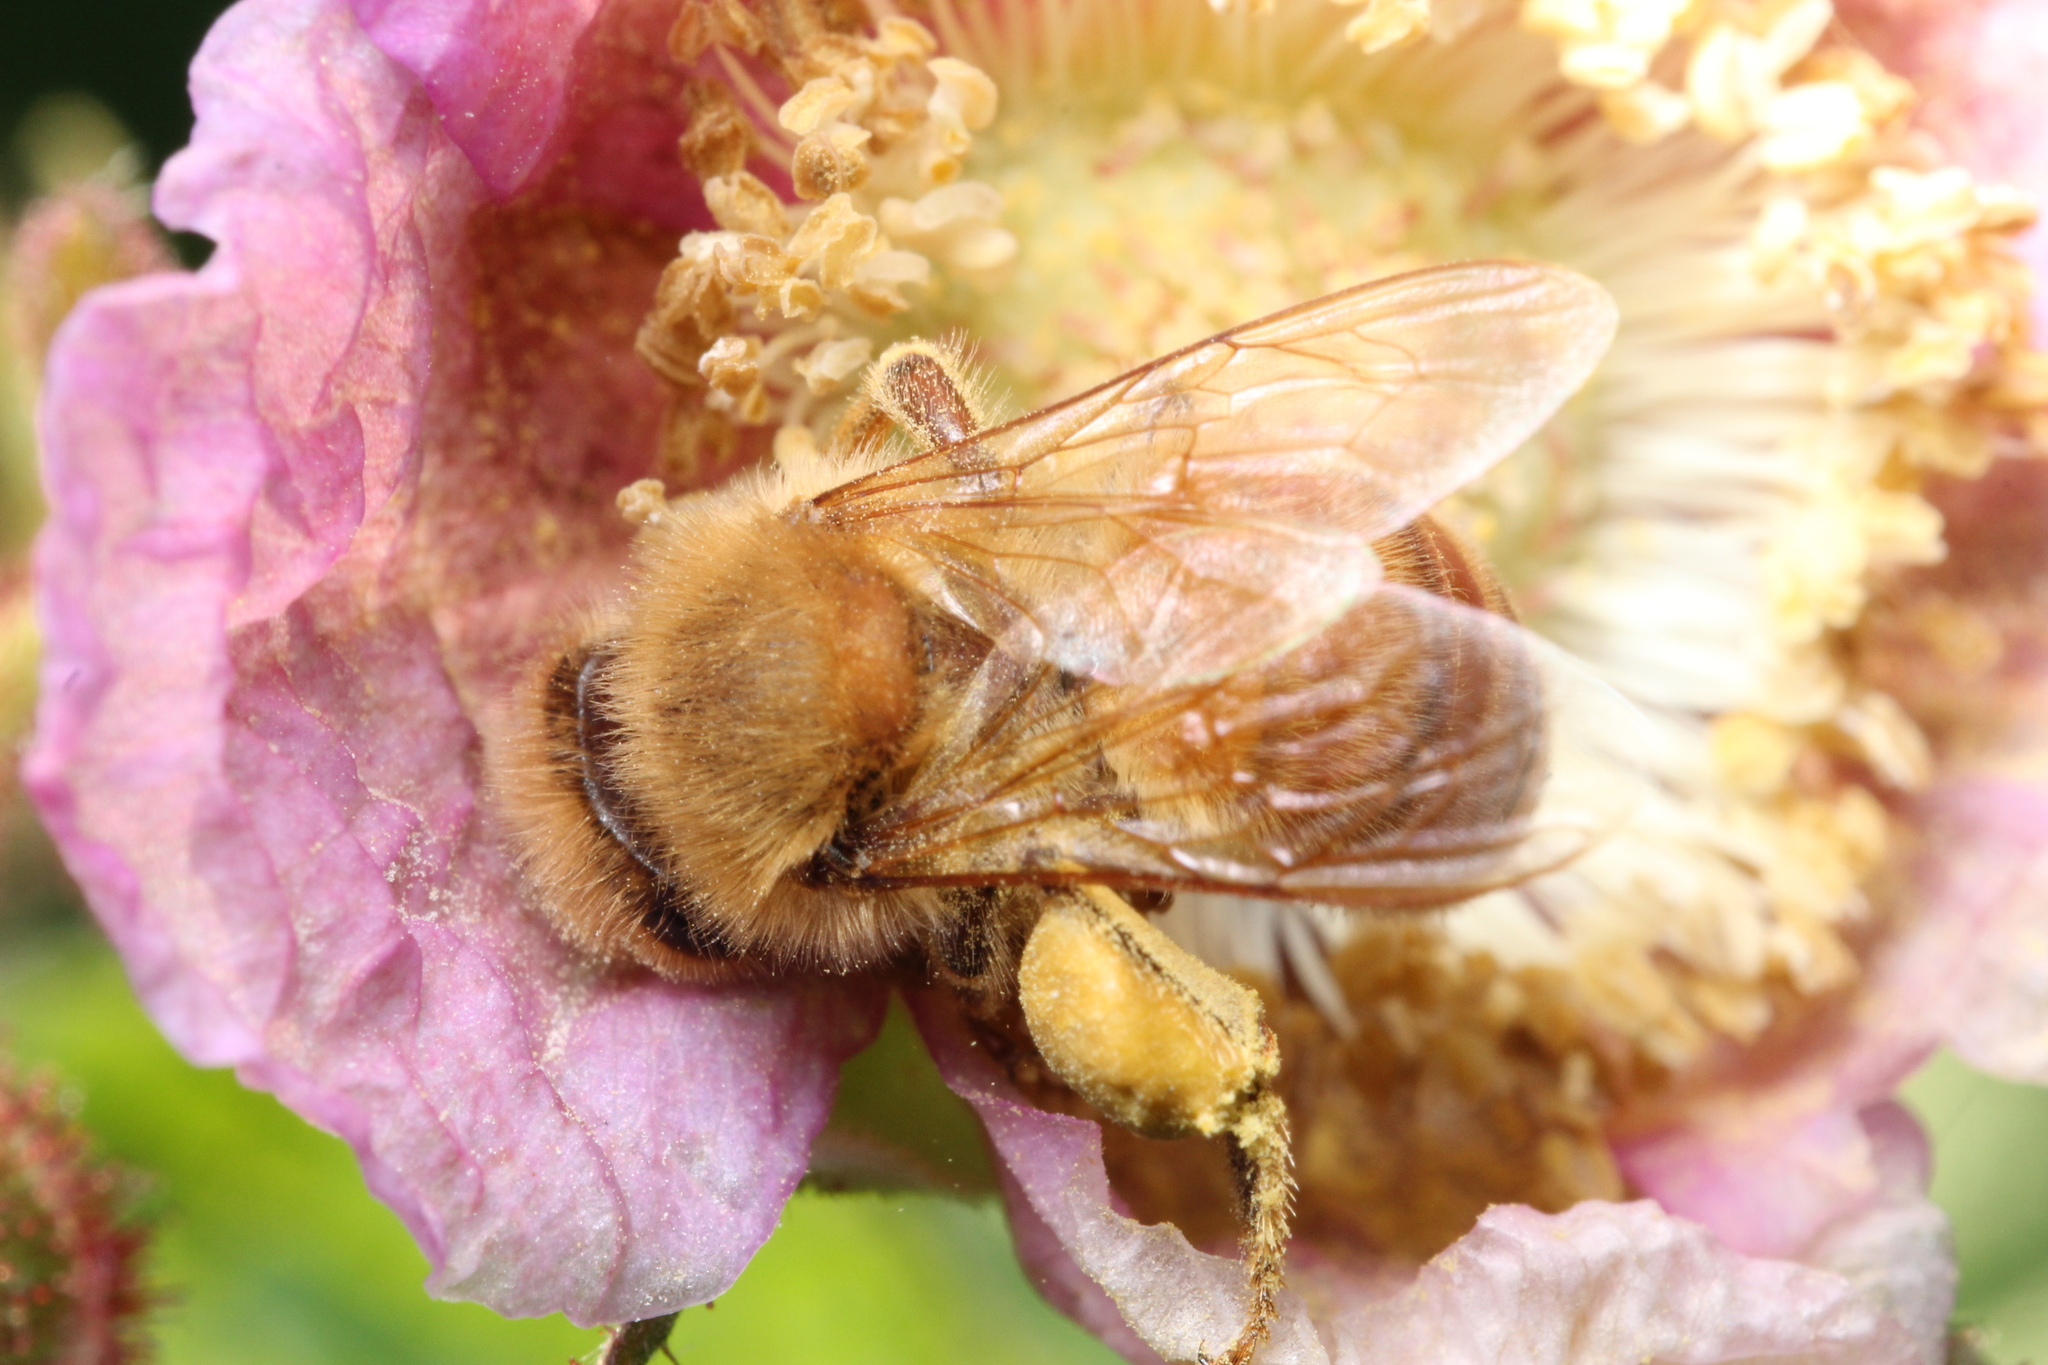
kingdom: Animalia
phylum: Arthropoda
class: Insecta
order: Hymenoptera
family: Apidae
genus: Apis
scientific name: Apis mellifera
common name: Honey bee
